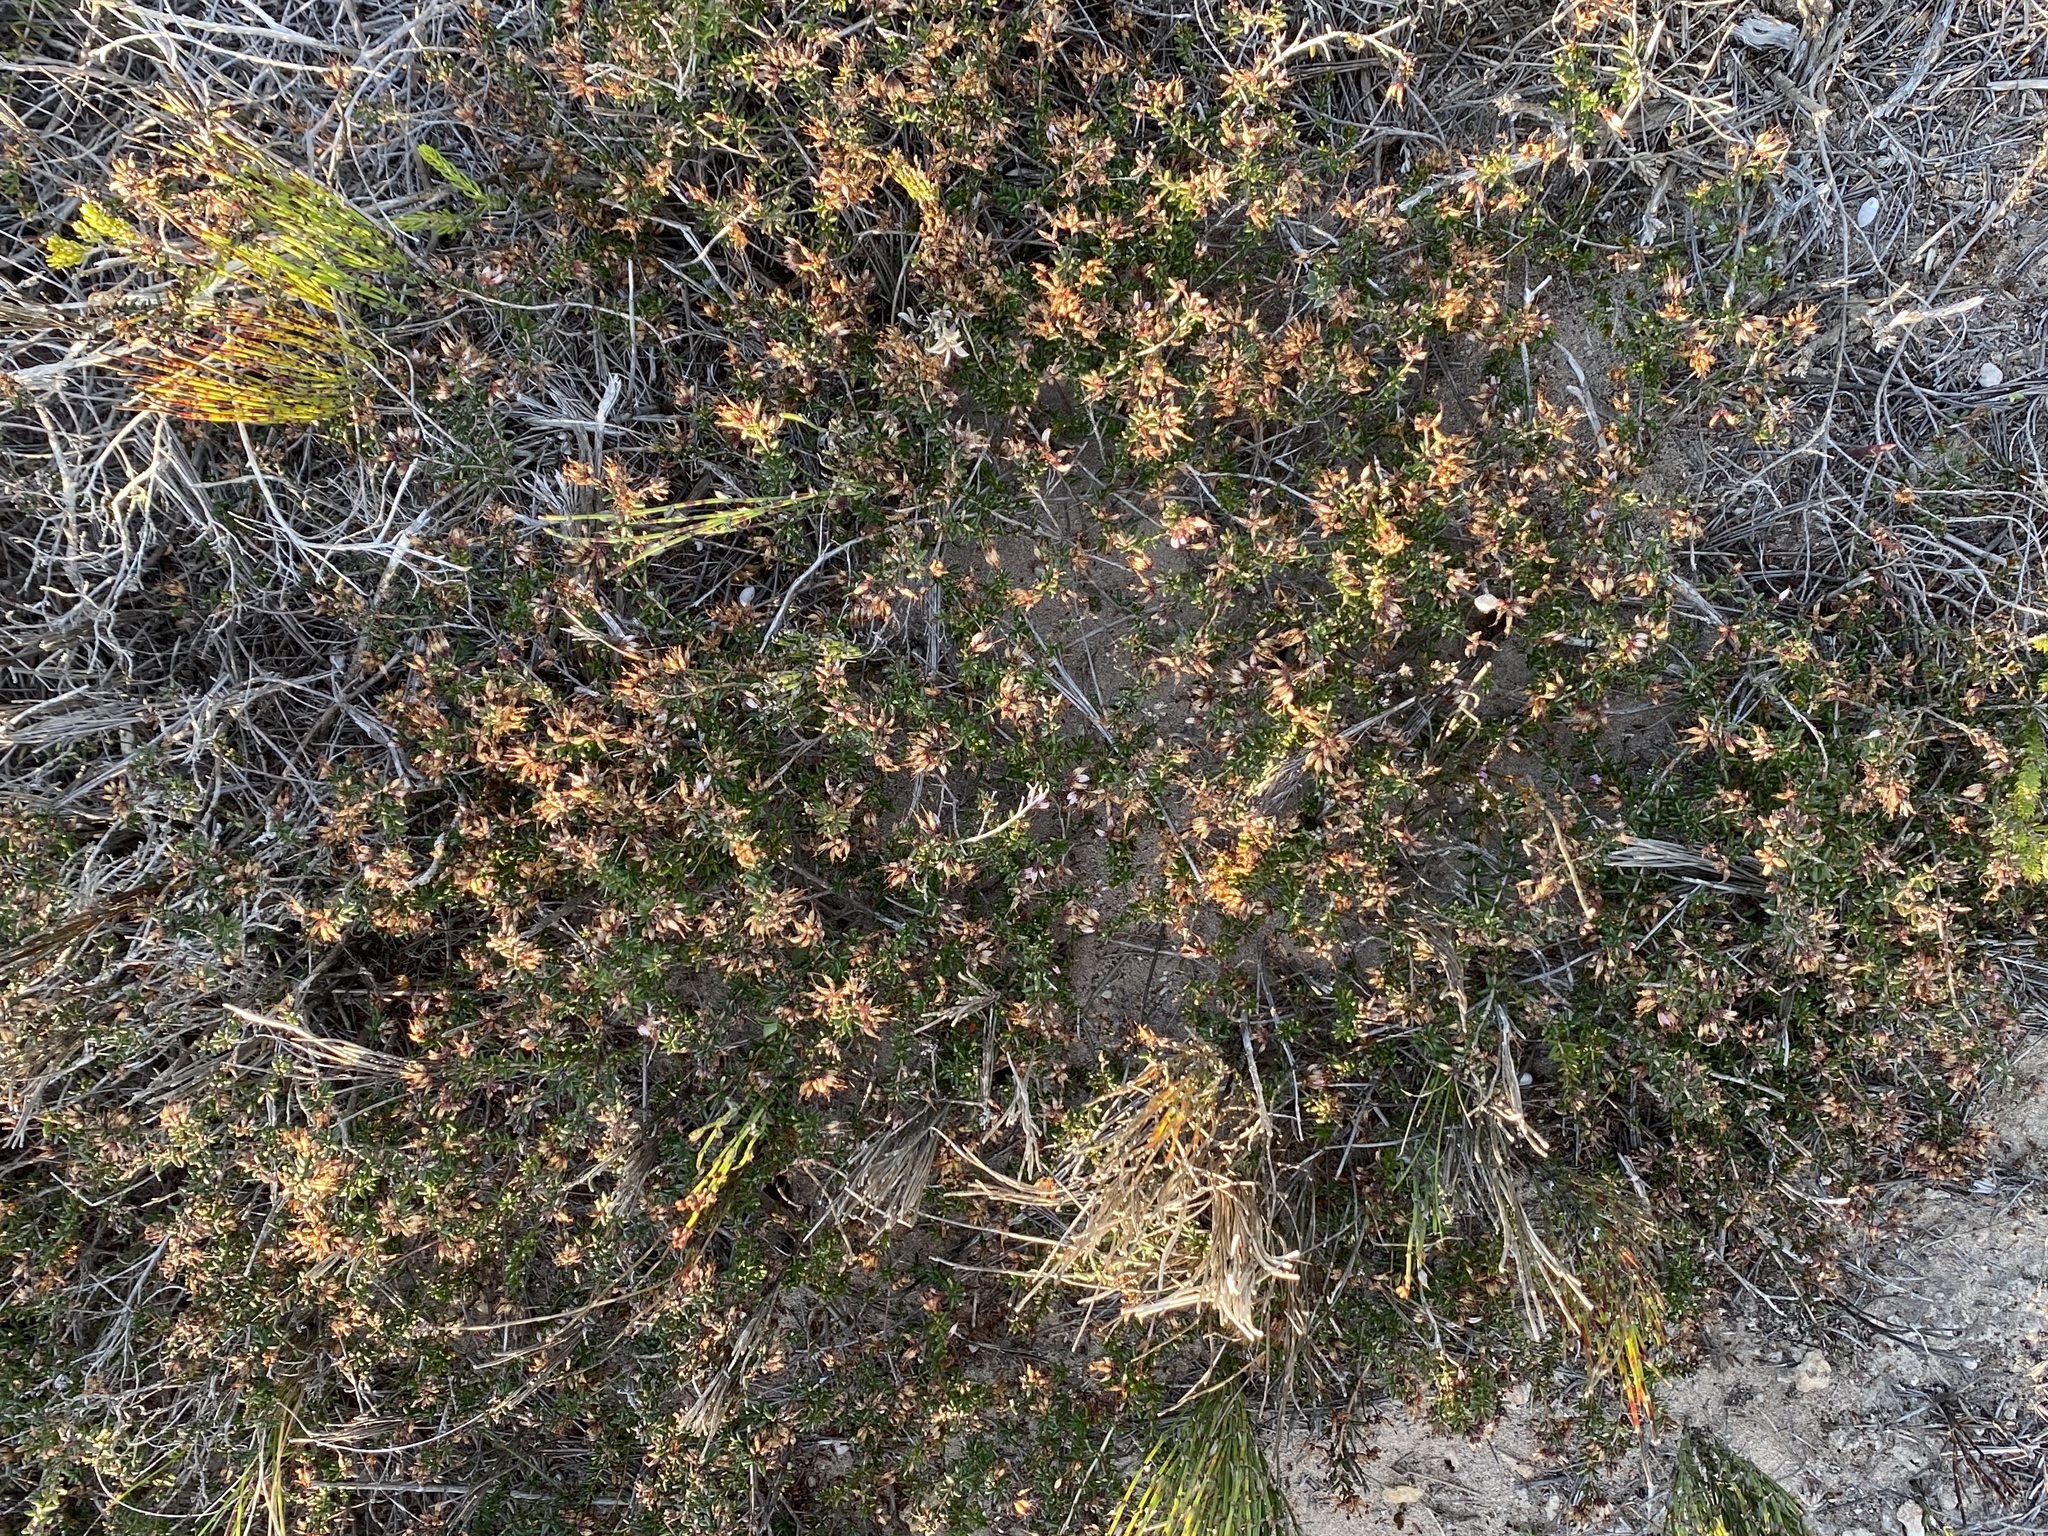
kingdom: Plantae
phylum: Tracheophyta
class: Magnoliopsida
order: Ericales
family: Ericaceae
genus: Erica
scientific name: Erica rosacea
